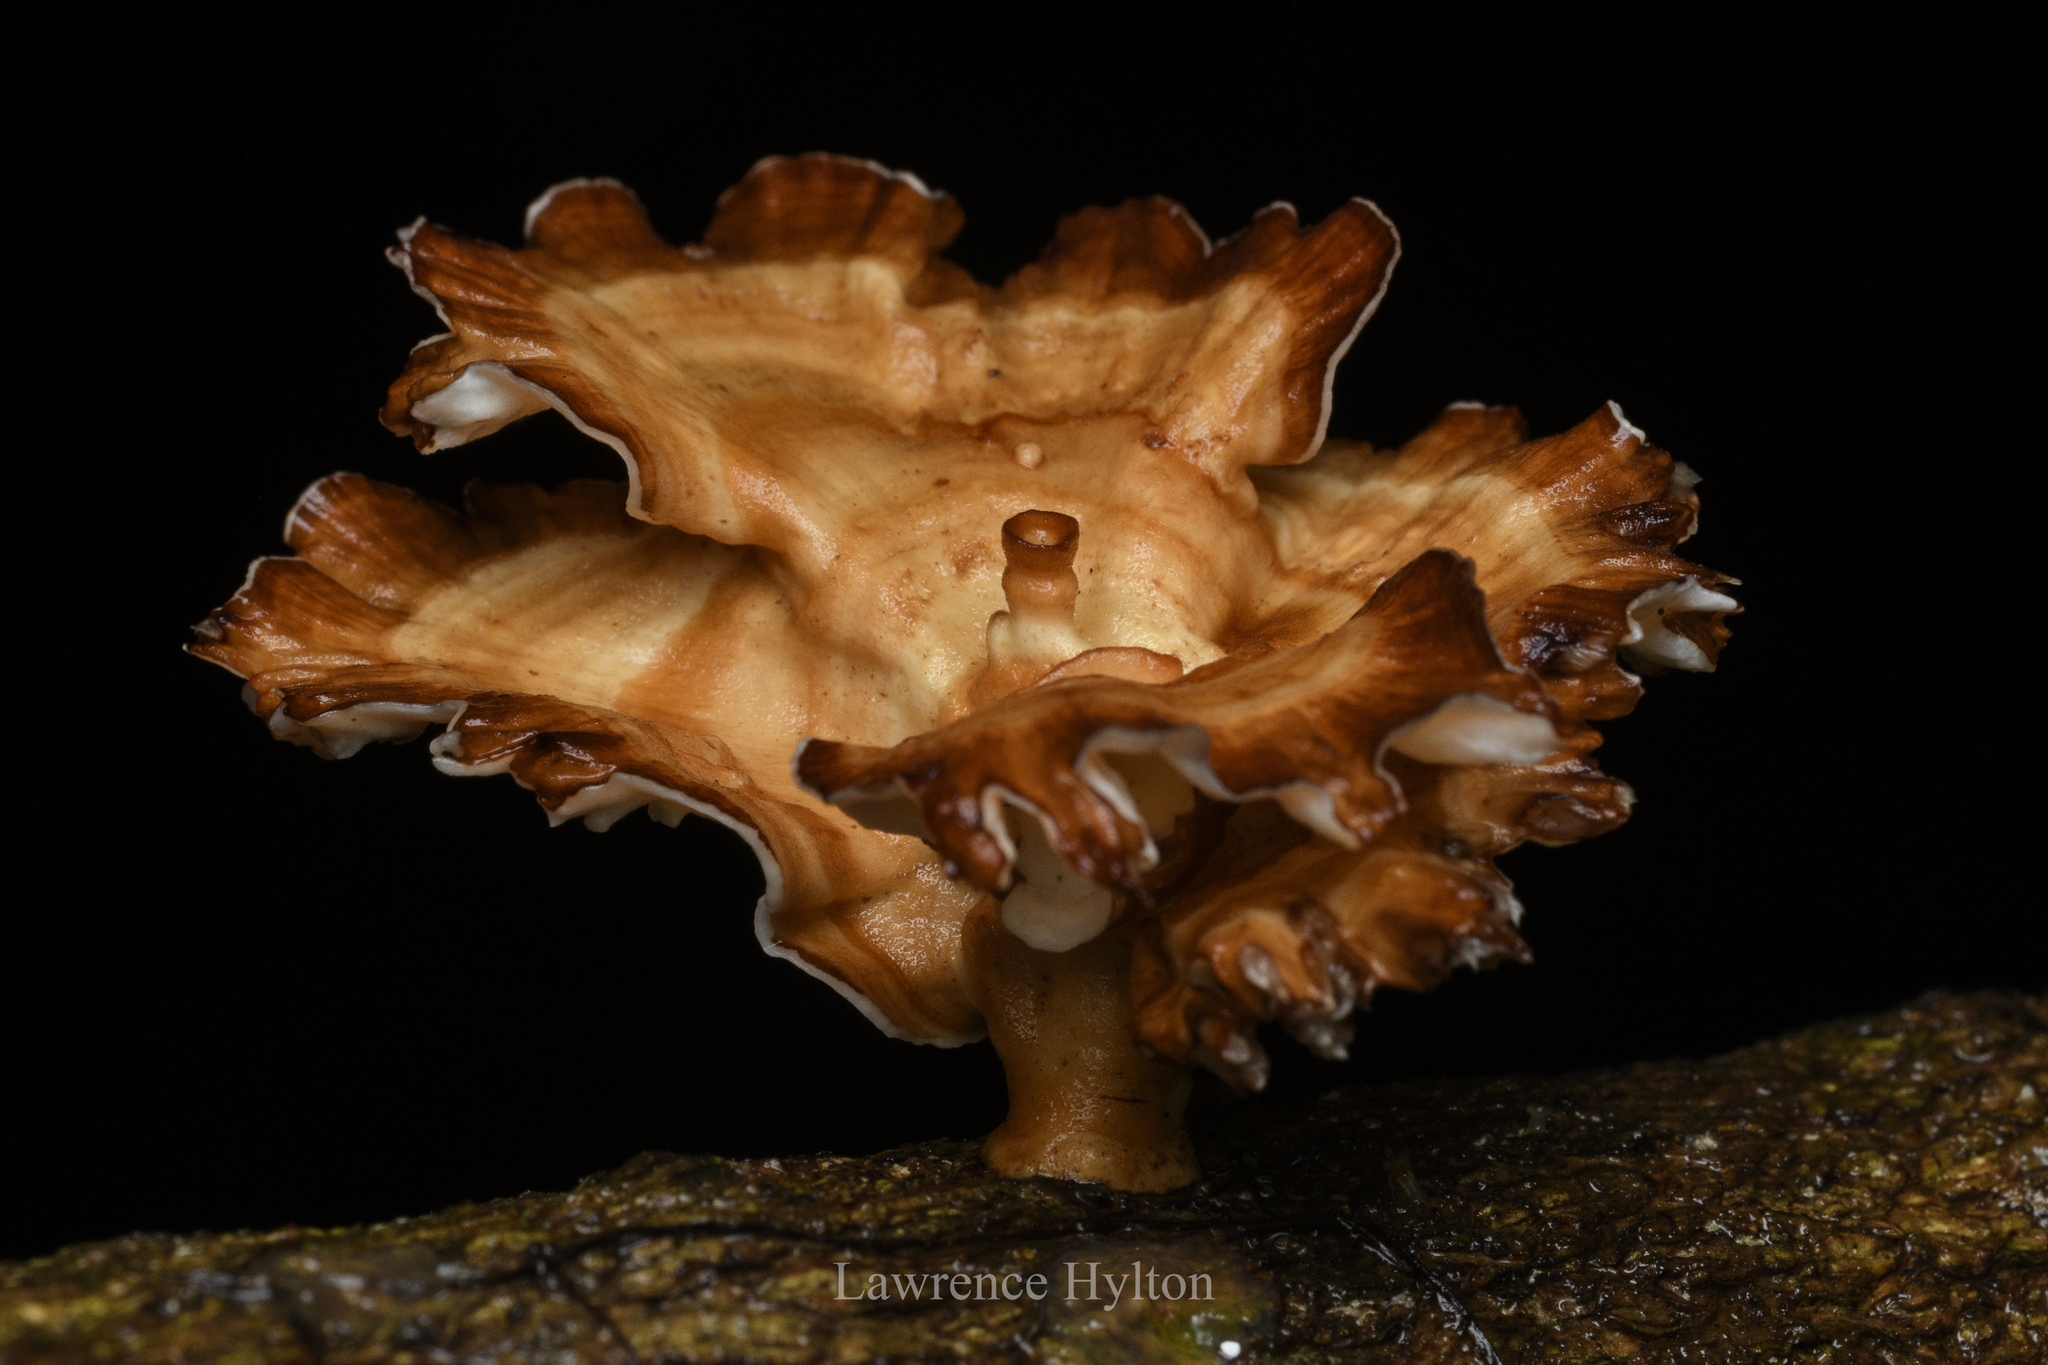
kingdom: Fungi
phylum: Basidiomycota
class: Agaricomycetes
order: Polyporales
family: Polyporaceae
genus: Microporus
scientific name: Microporus xanthopus
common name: Yellow-stemmed micropore
